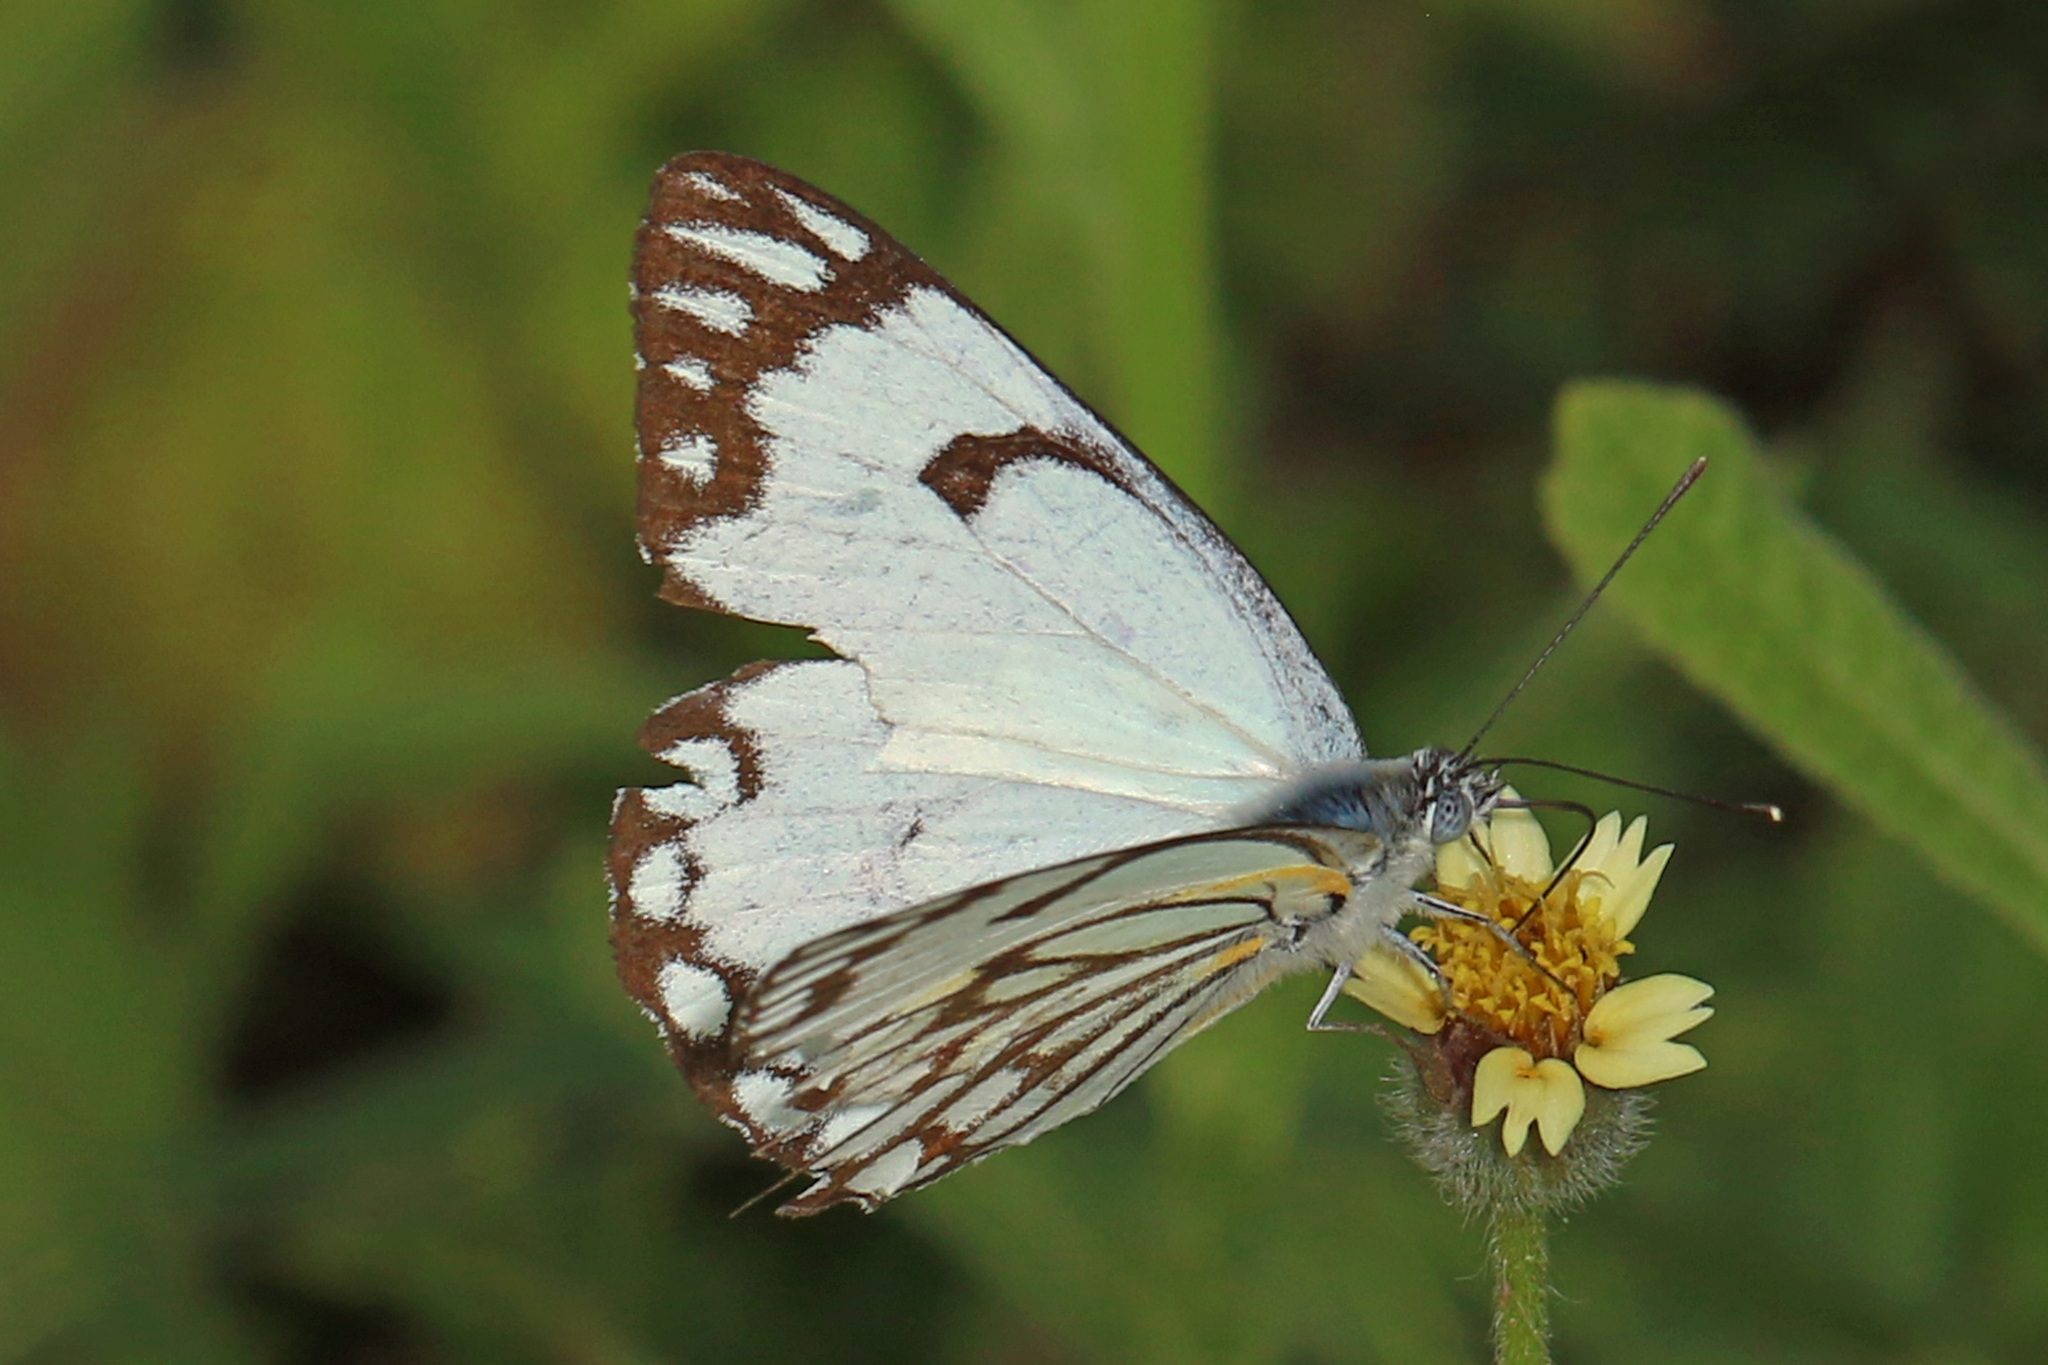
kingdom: Animalia
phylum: Arthropoda
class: Insecta
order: Lepidoptera
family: Pieridae
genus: Belenois
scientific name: Belenois aurota
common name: Brown-veined white
